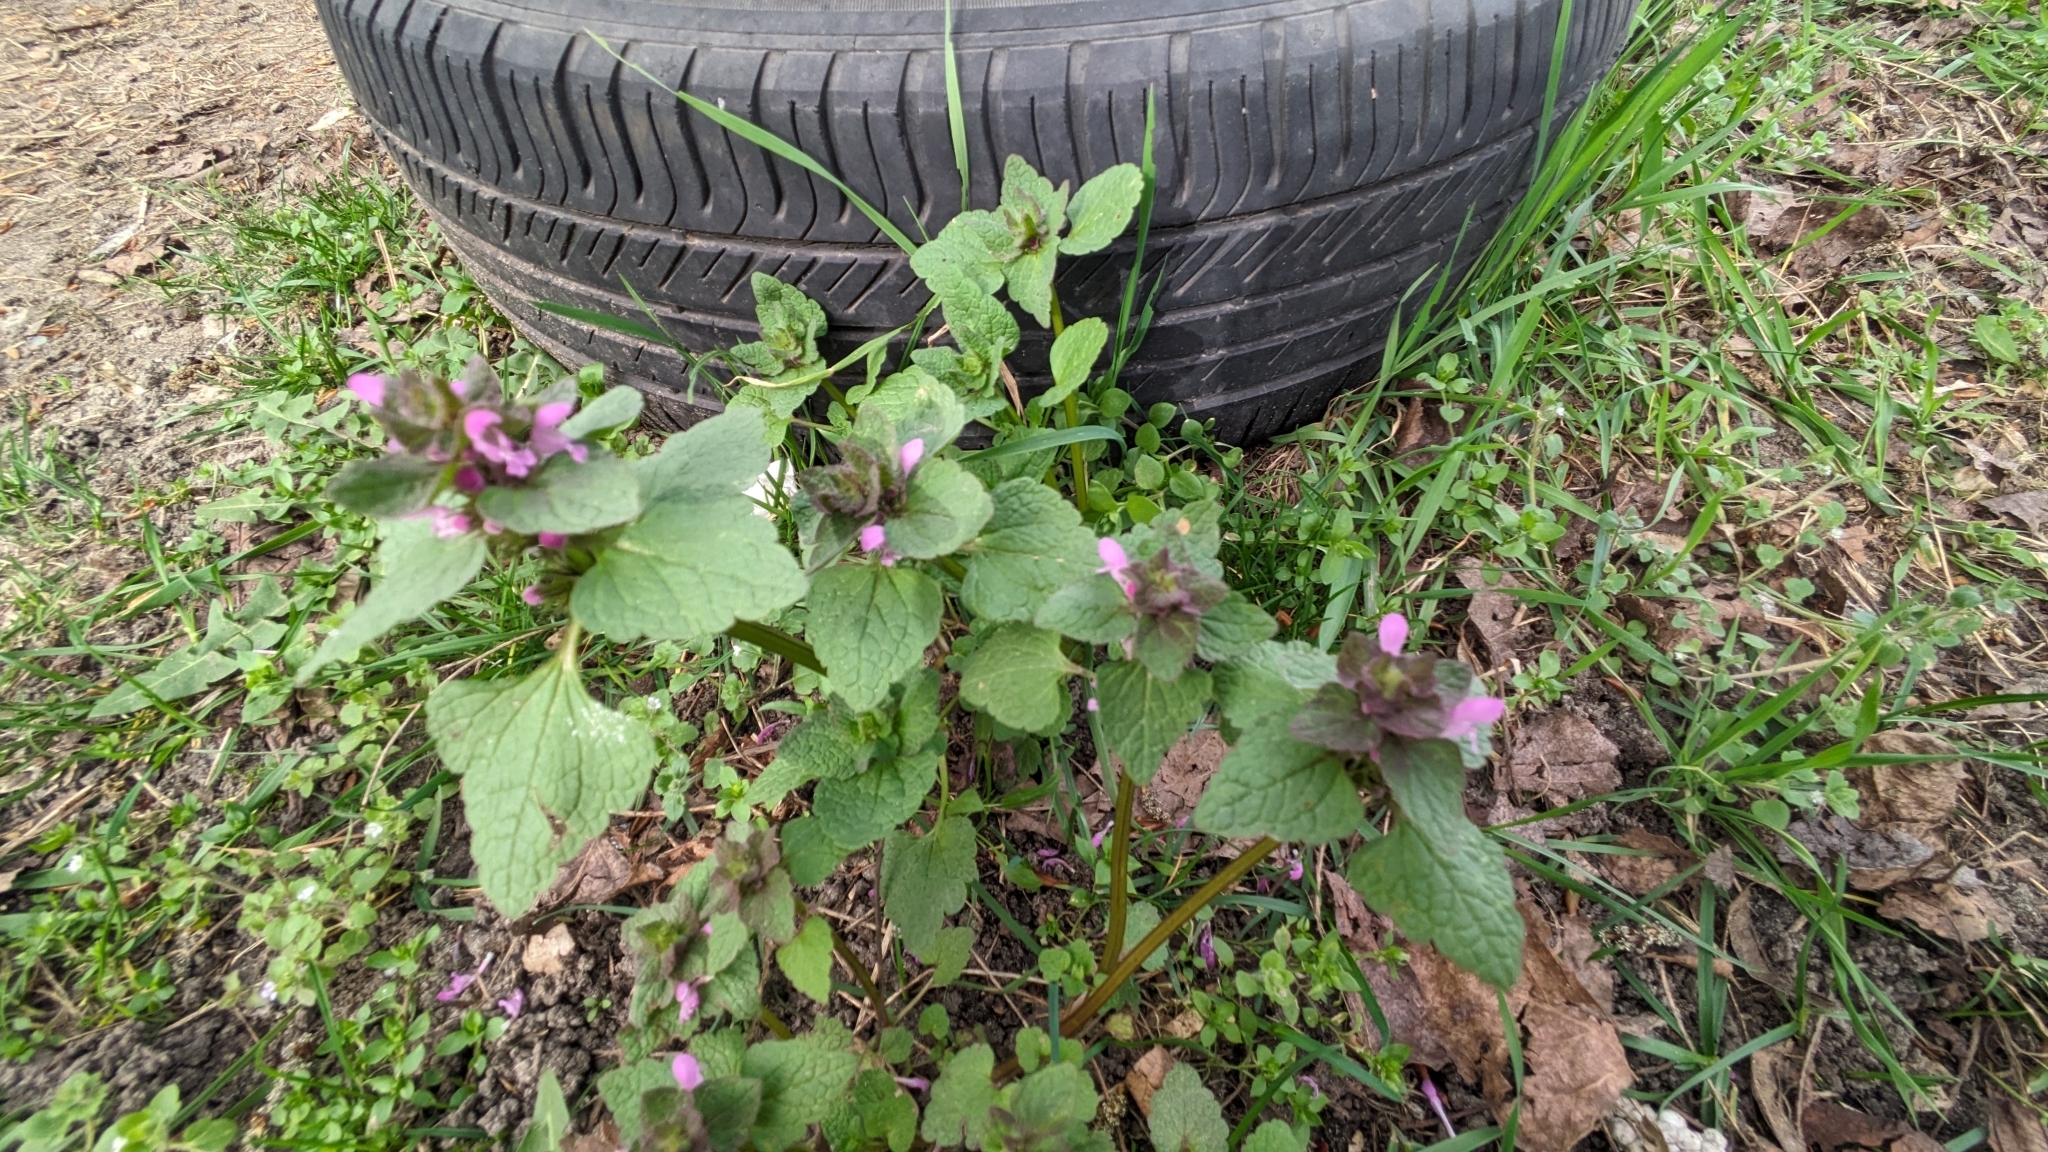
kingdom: Plantae
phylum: Tracheophyta
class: Magnoliopsida
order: Lamiales
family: Lamiaceae
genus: Lamium
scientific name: Lamium purpureum
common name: Red dead-nettle
